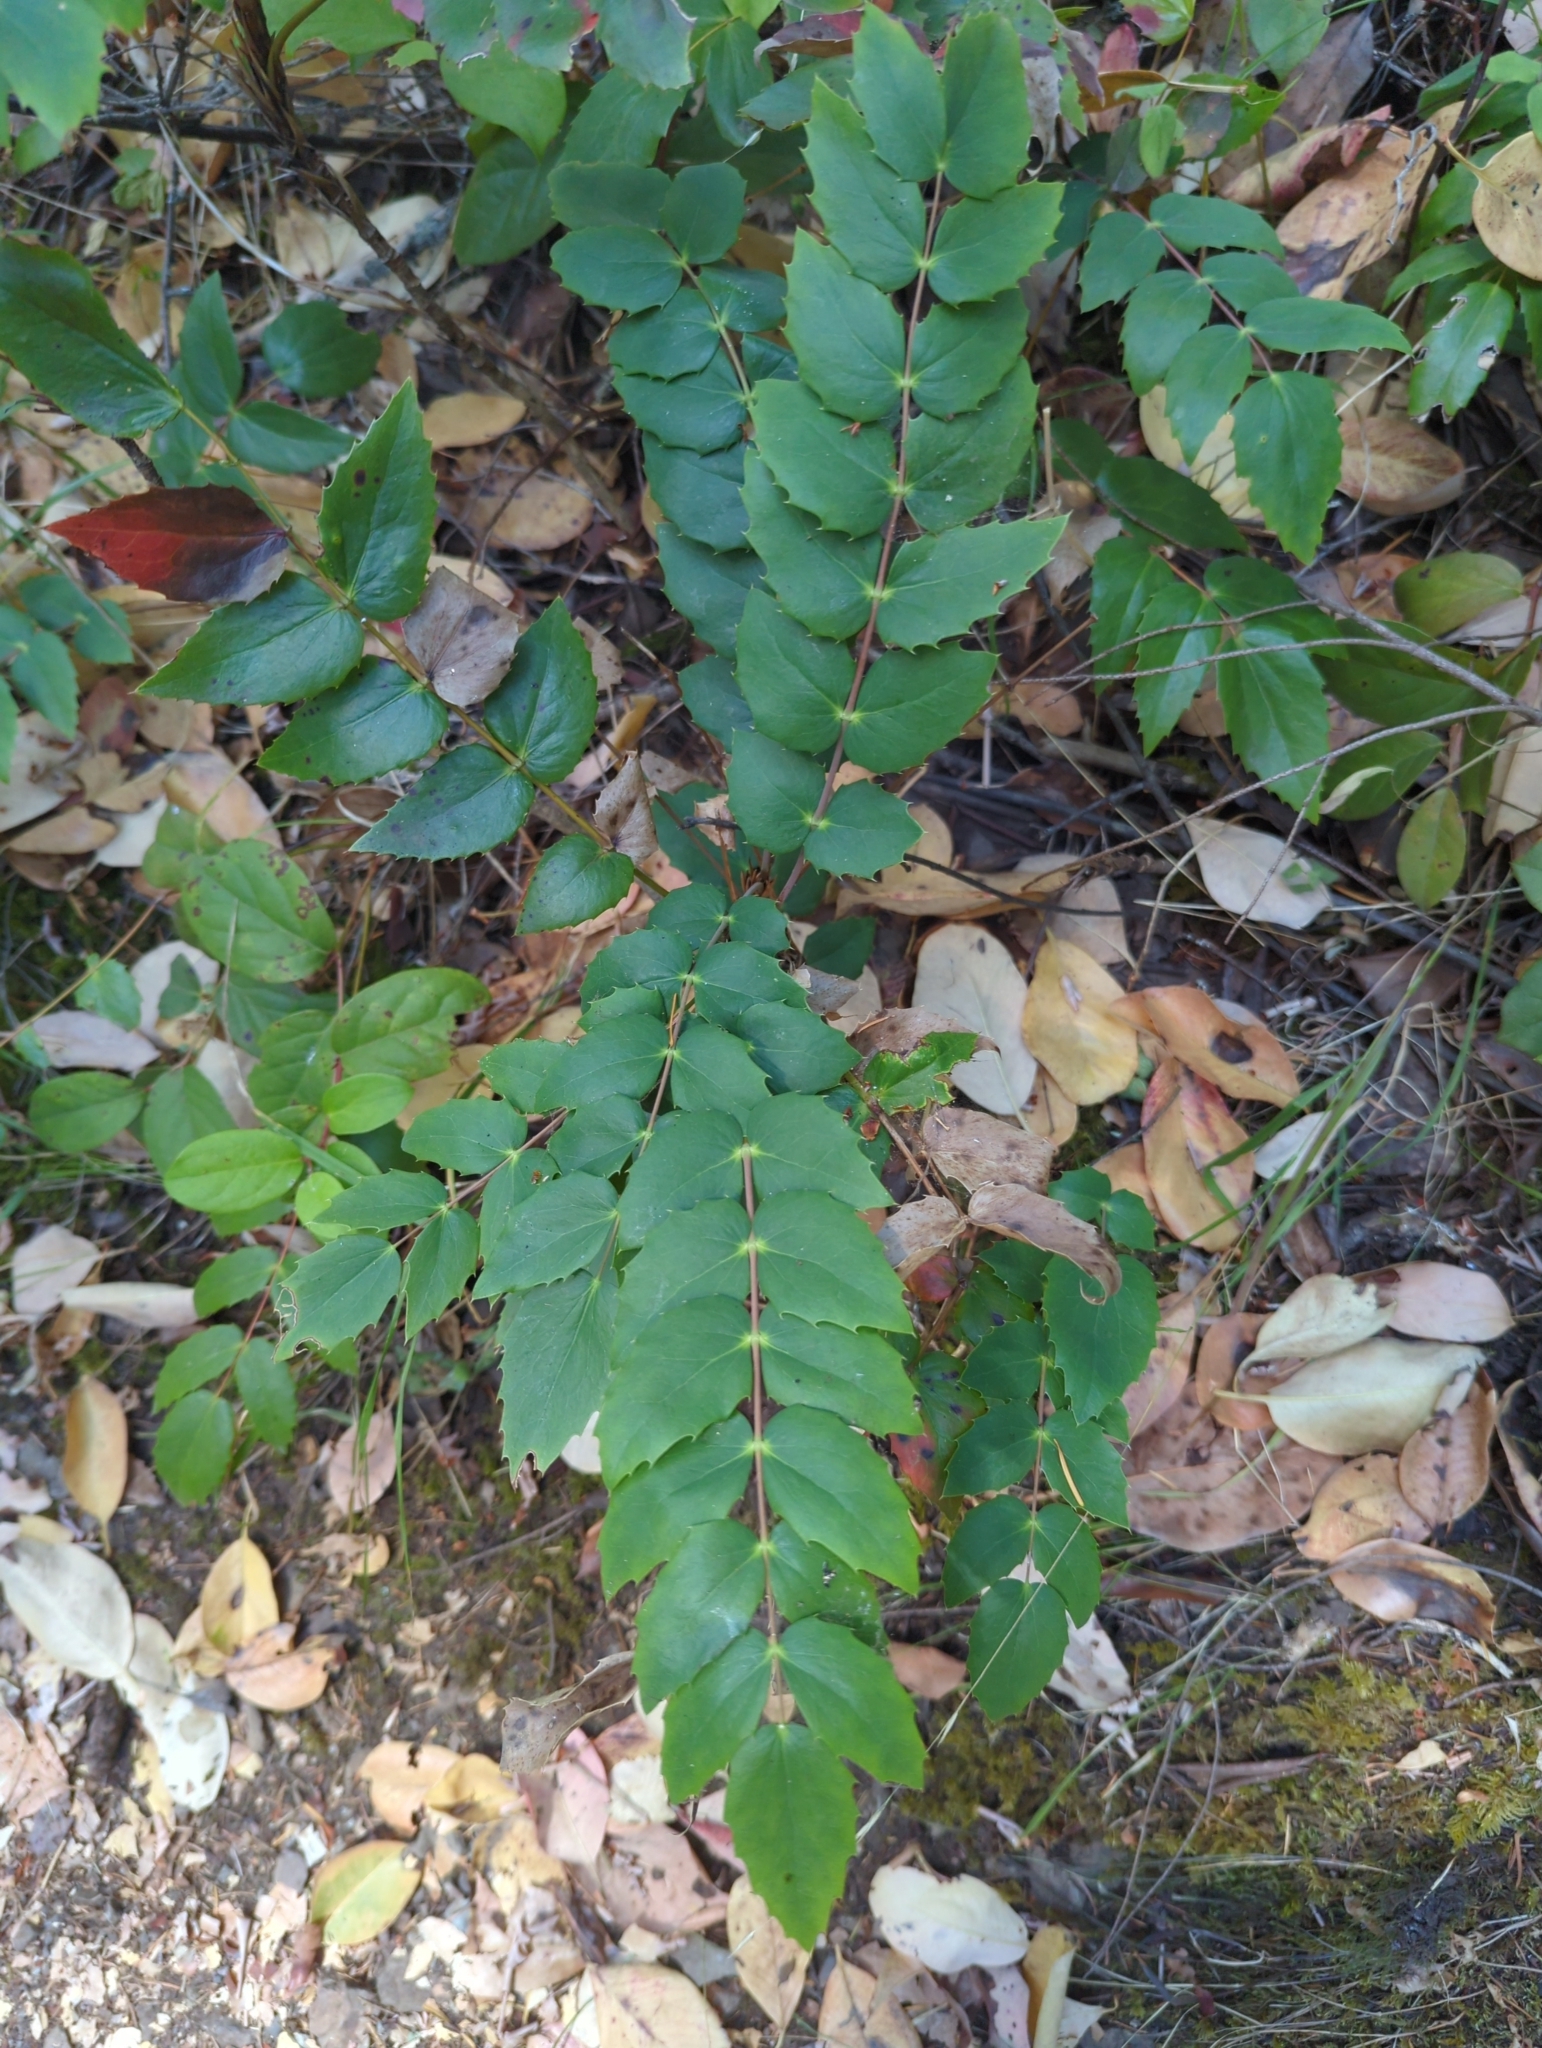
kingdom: Plantae
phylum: Tracheophyta
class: Magnoliopsida
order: Ranunculales
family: Berberidaceae
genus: Mahonia
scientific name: Mahonia nervosa
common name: Cascade oregon-grape
